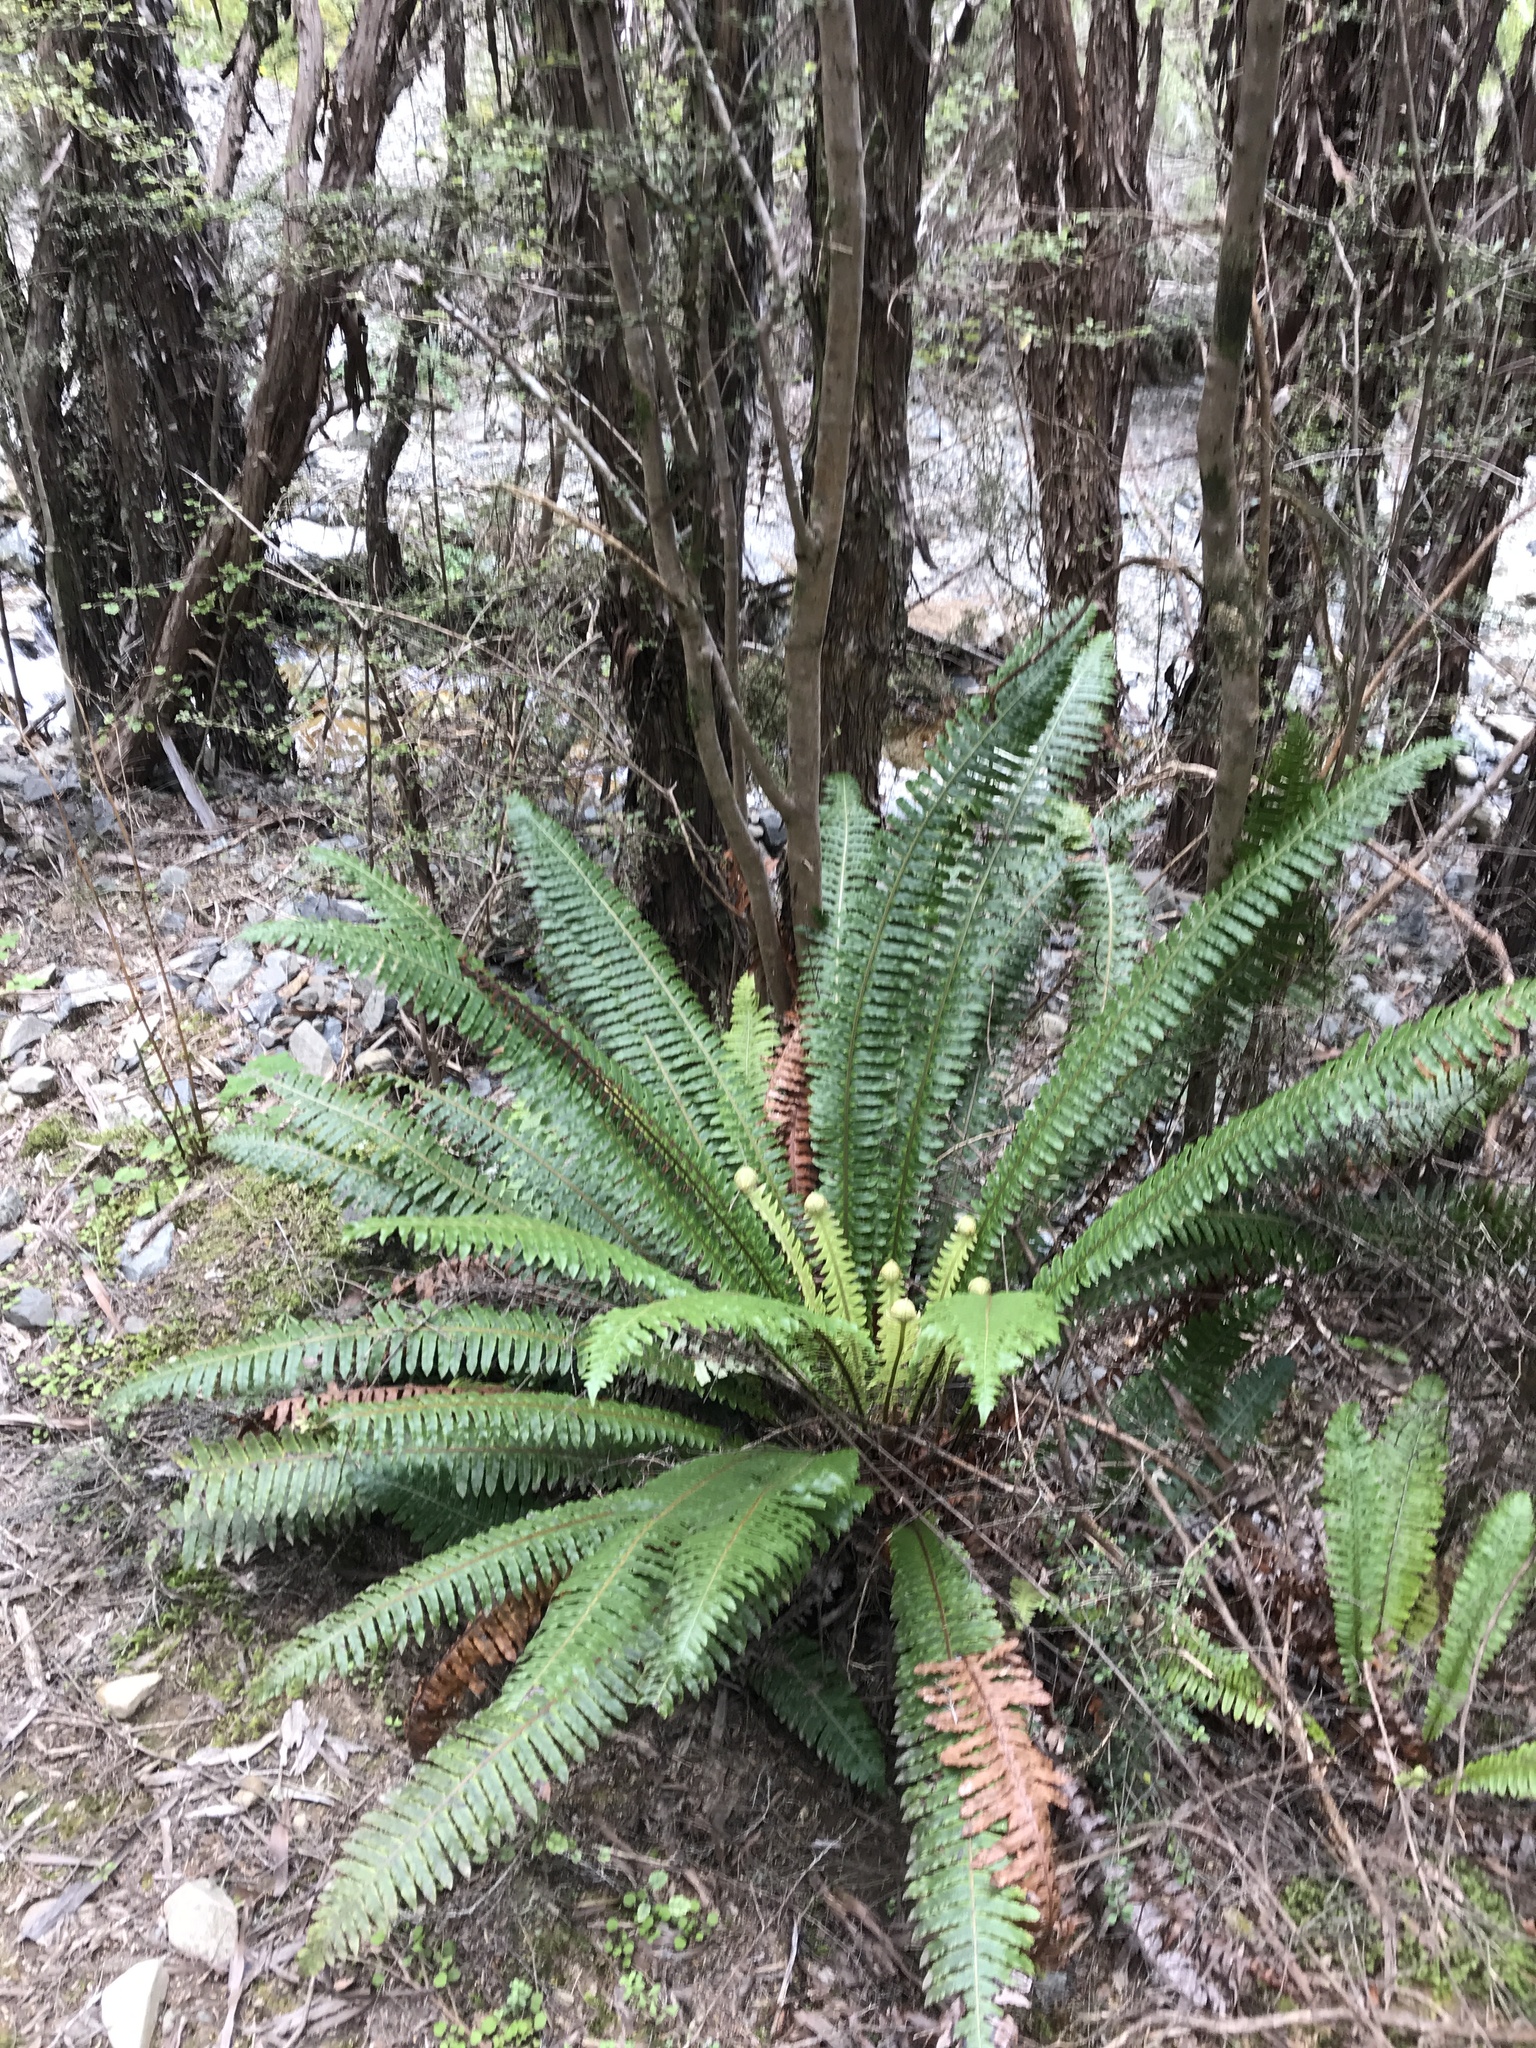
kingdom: Plantae
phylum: Tracheophyta
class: Polypodiopsida
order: Polypodiales
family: Blechnaceae
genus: Lomaria
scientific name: Lomaria discolor
